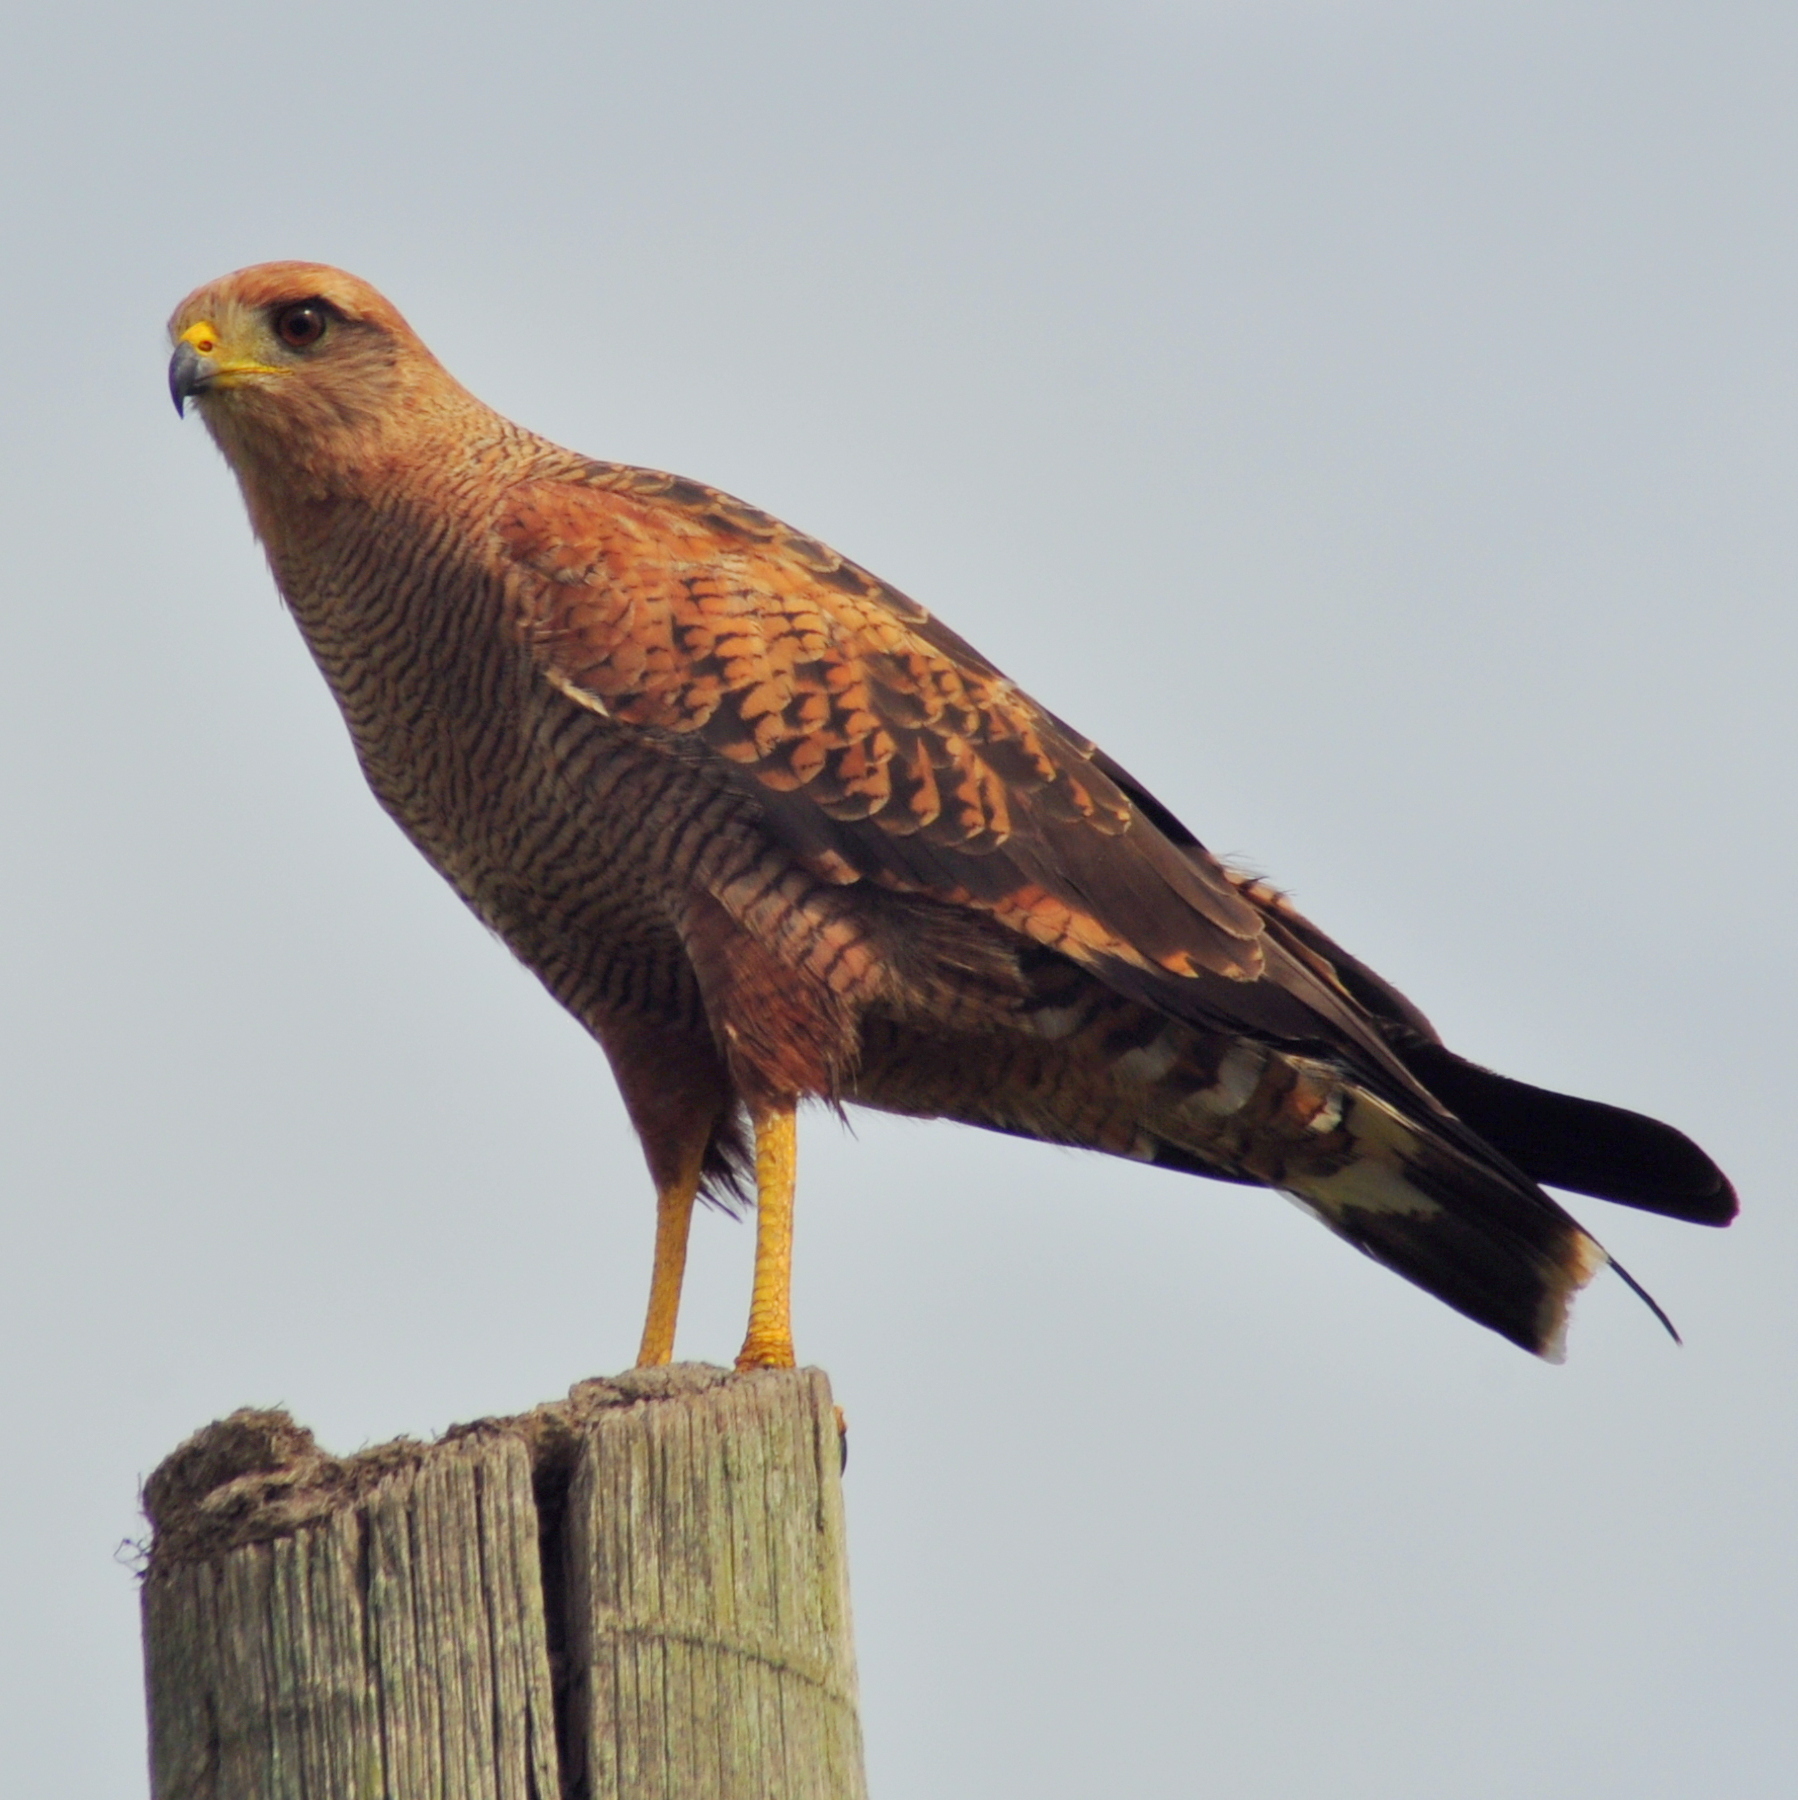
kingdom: Animalia
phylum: Chordata
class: Aves
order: Accipitriformes
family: Accipitridae
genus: Buteogallus
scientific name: Buteogallus meridionalis
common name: Savanna hawk
